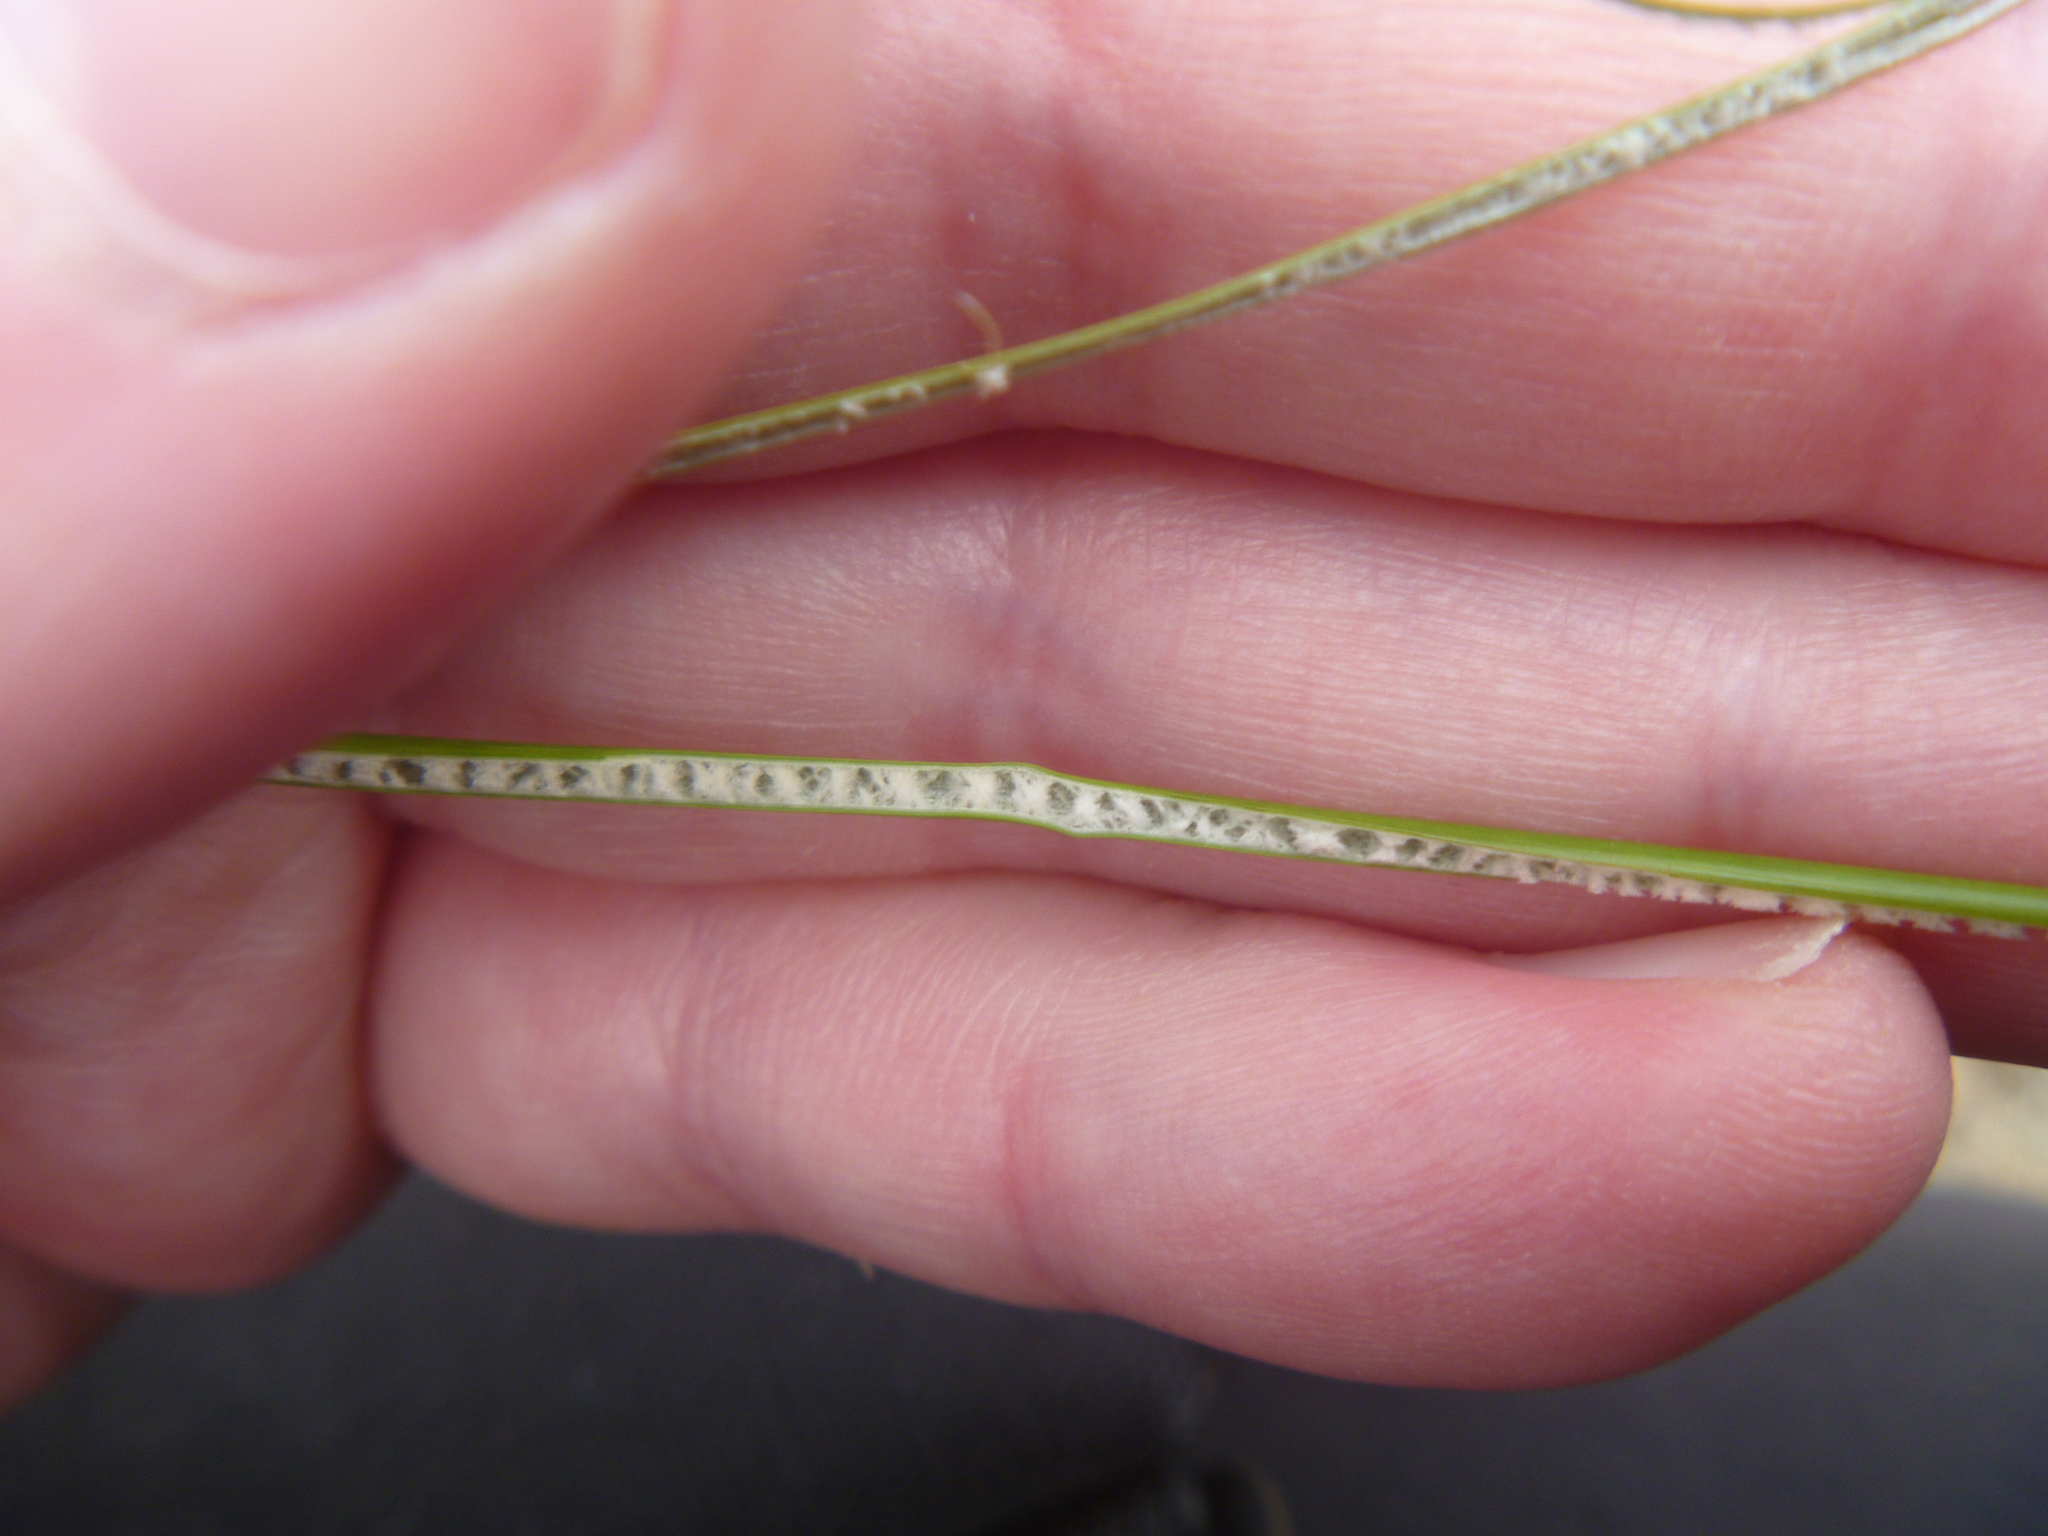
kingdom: Plantae
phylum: Tracheophyta
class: Liliopsida
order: Poales
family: Juncaceae
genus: Juncus
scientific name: Juncus edgariae
